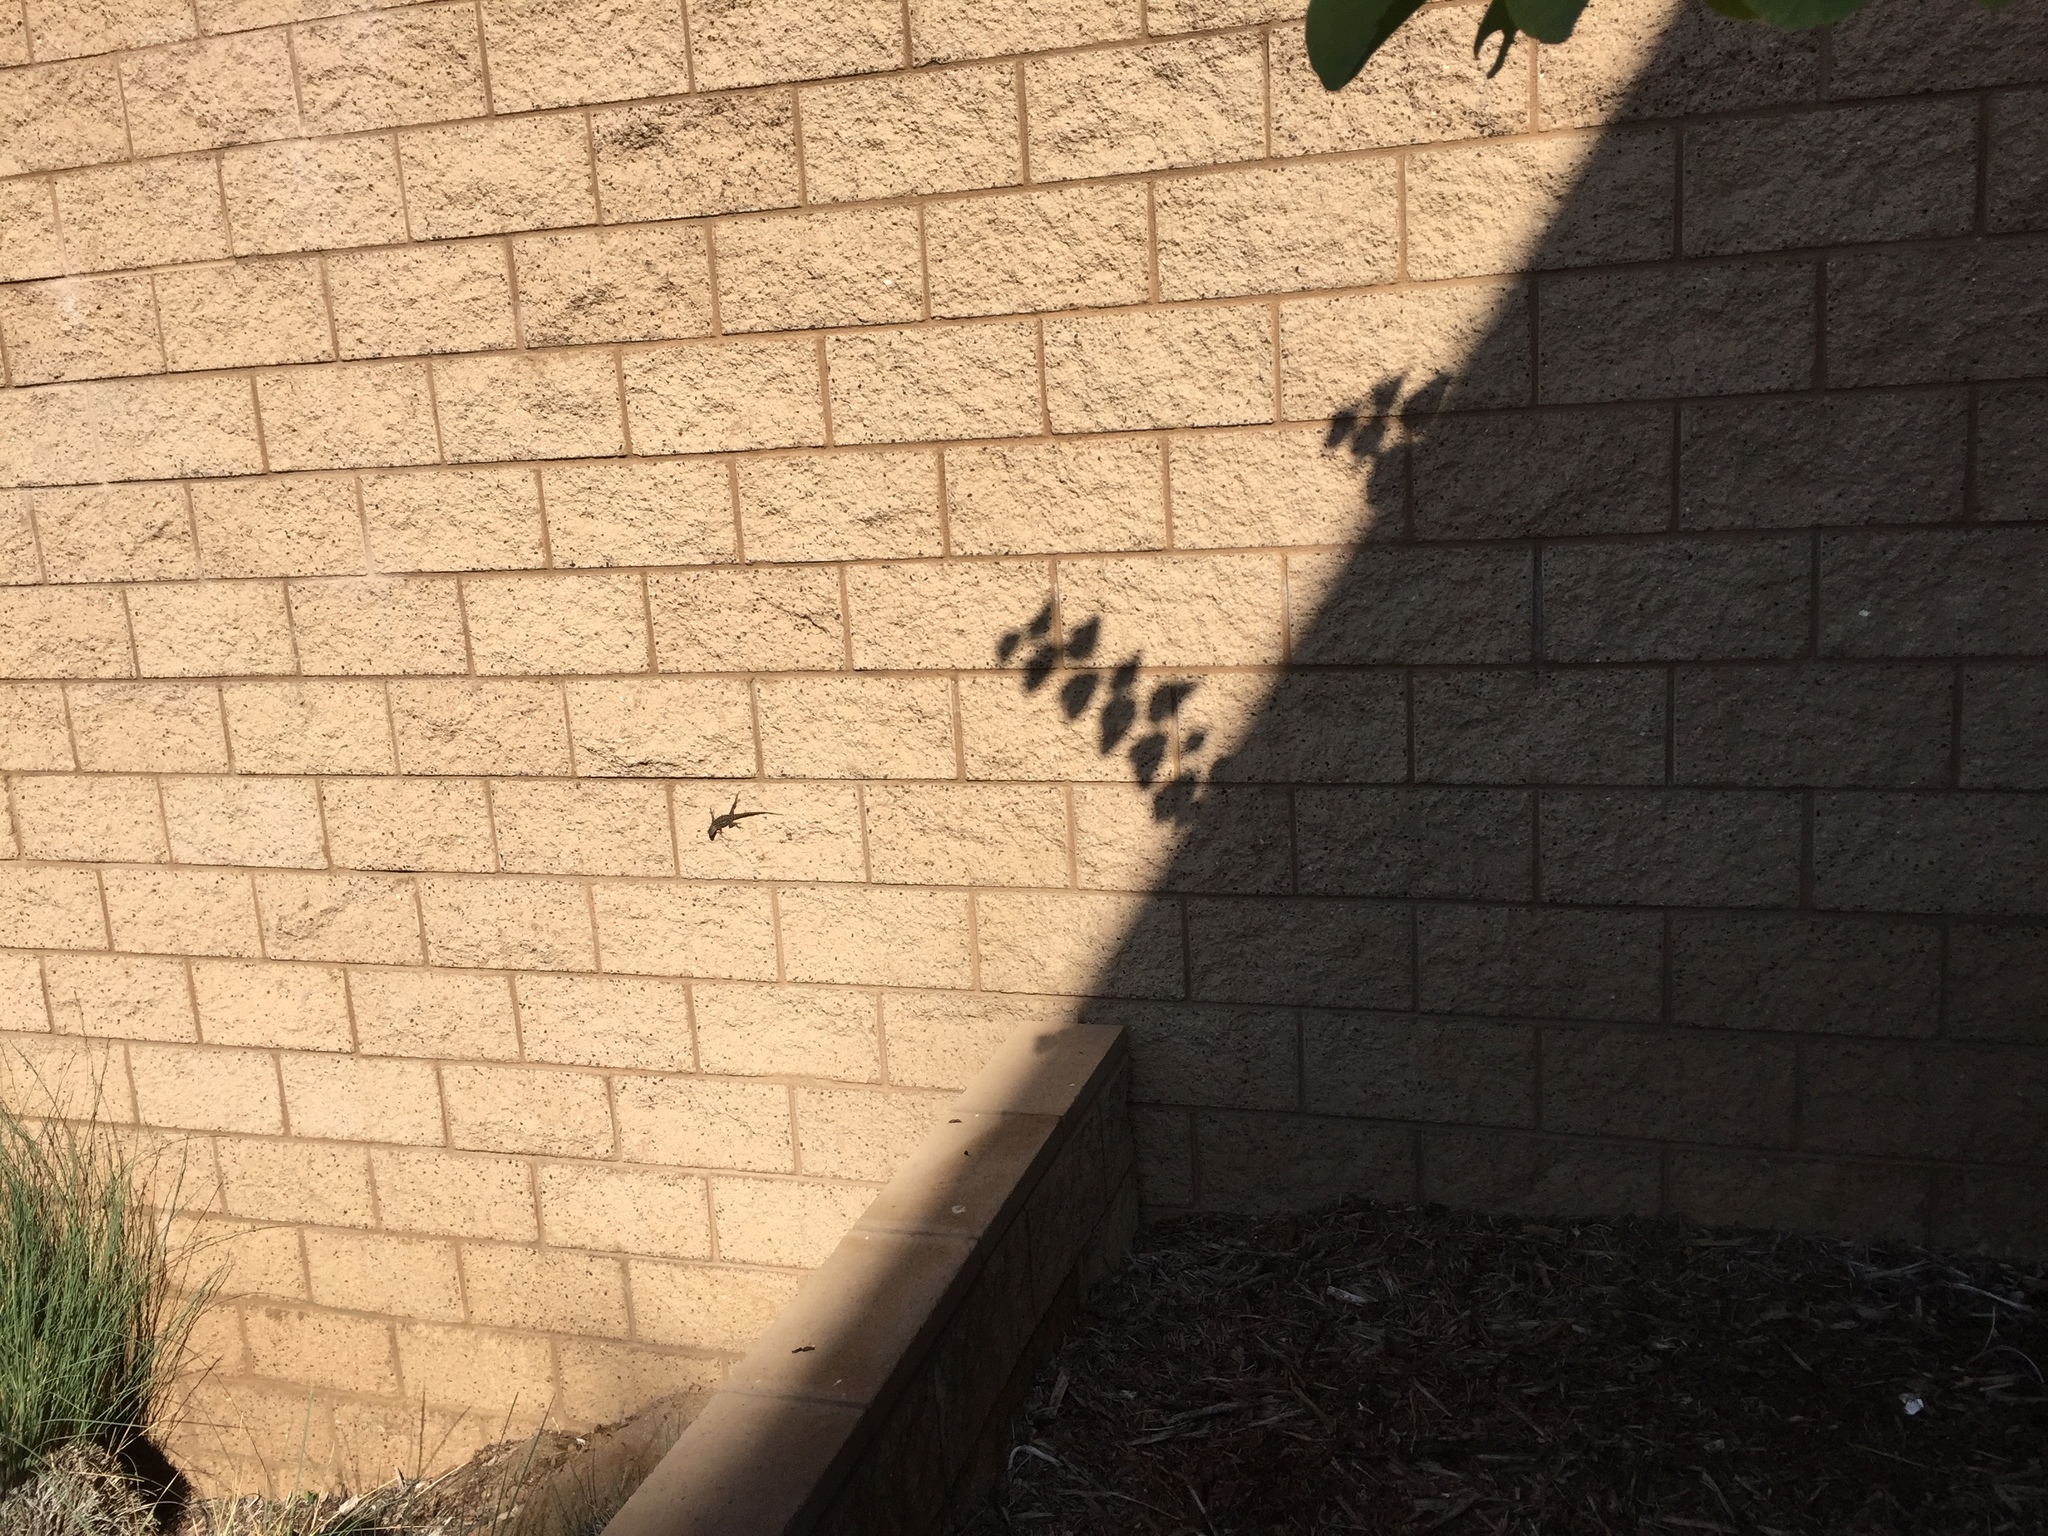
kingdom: Animalia
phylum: Chordata
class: Squamata
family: Phrynosomatidae
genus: Sceloporus
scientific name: Sceloporus occidentalis
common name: Western fence lizard
